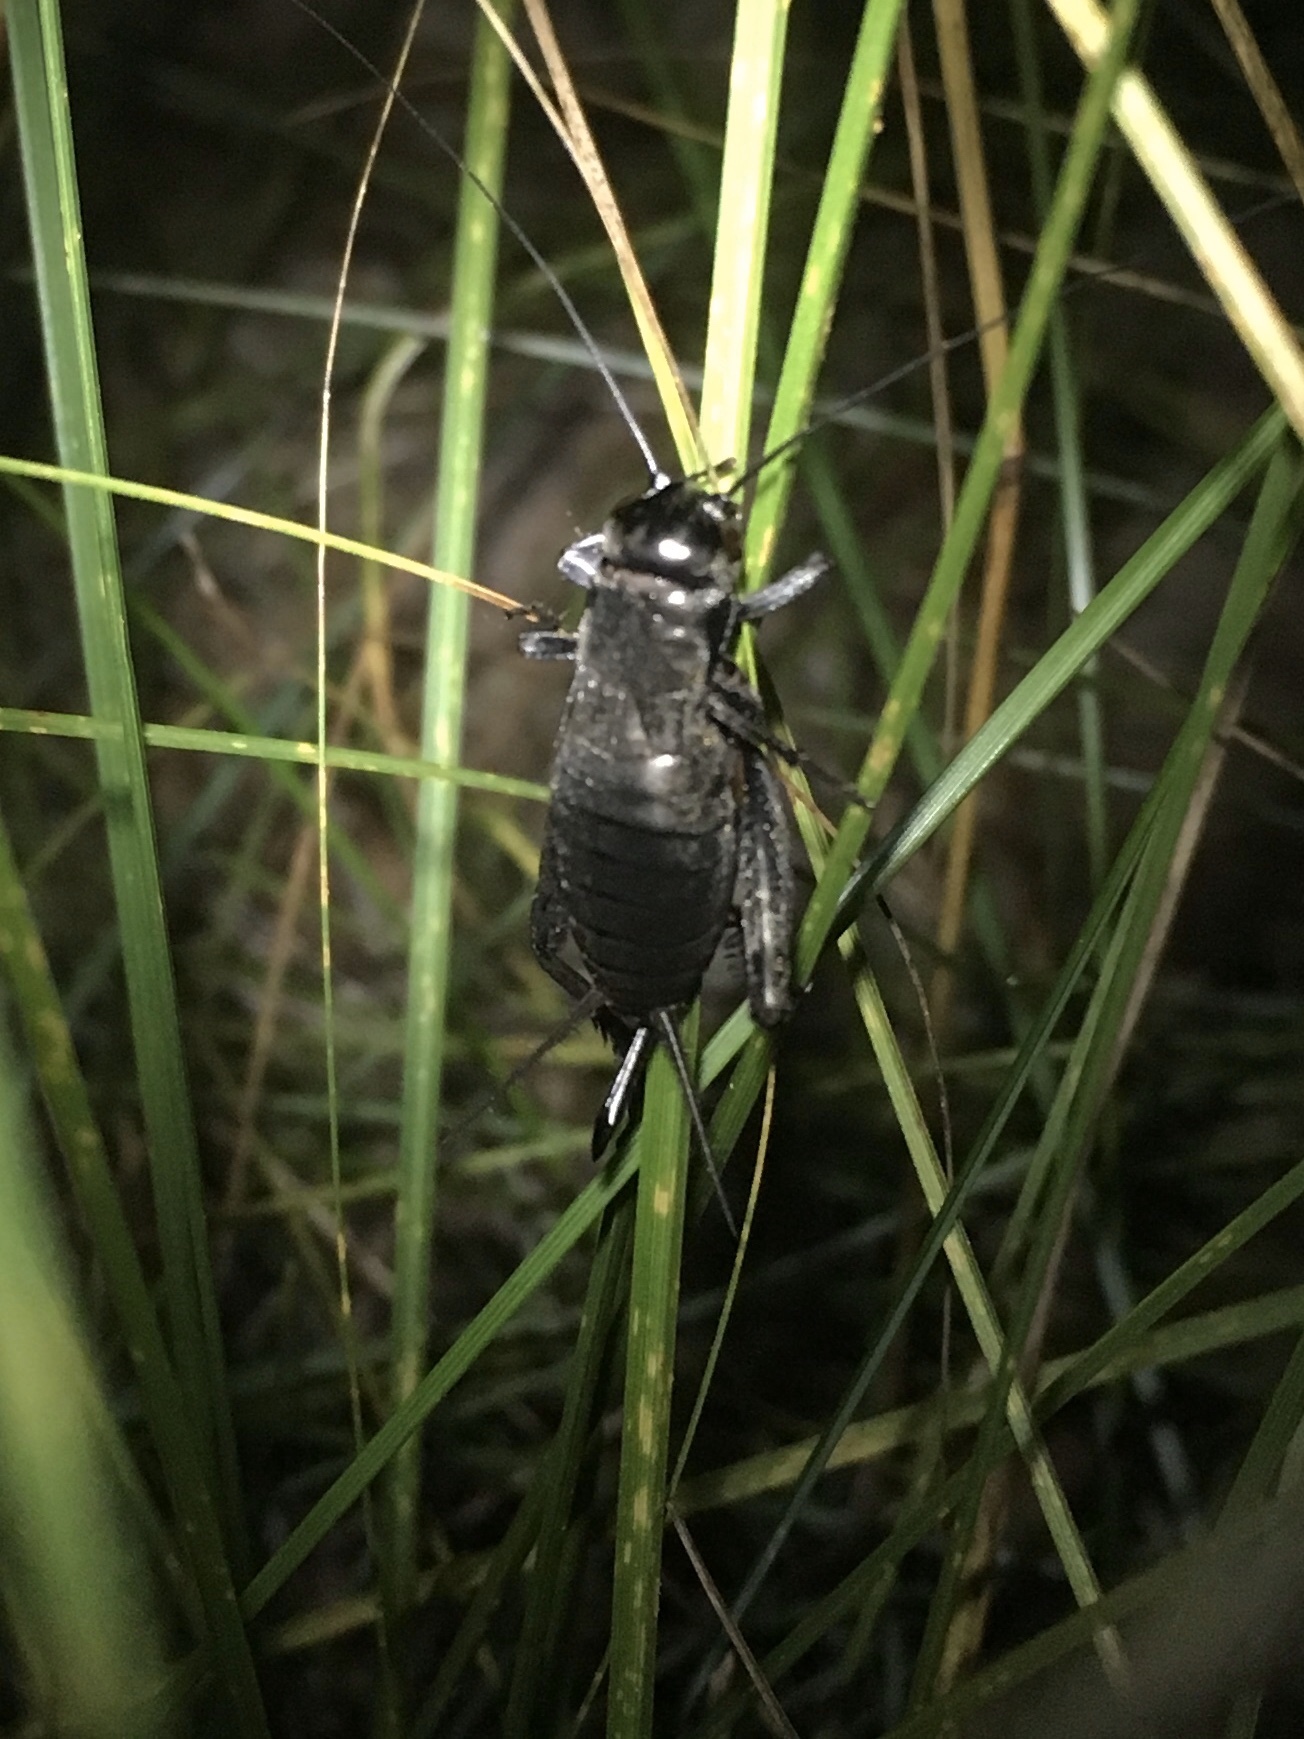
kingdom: Animalia
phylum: Arthropoda
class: Insecta
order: Orthoptera
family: Gryllidae
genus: Gryllus
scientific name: Gryllus pennsylvanicus
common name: Fall field cricket
